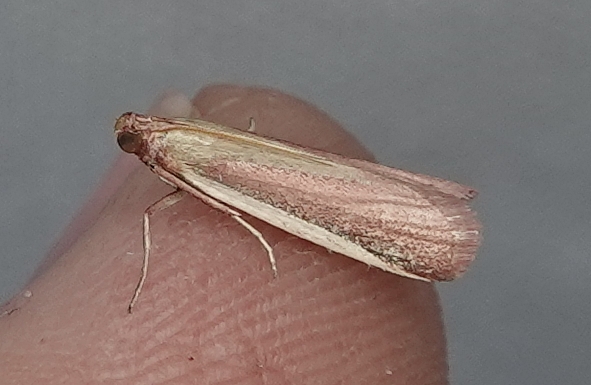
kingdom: Animalia
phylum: Arthropoda
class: Insecta
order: Lepidoptera
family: Pyralidae
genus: Peoria
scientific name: Peoria approximella
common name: Carmine snout
